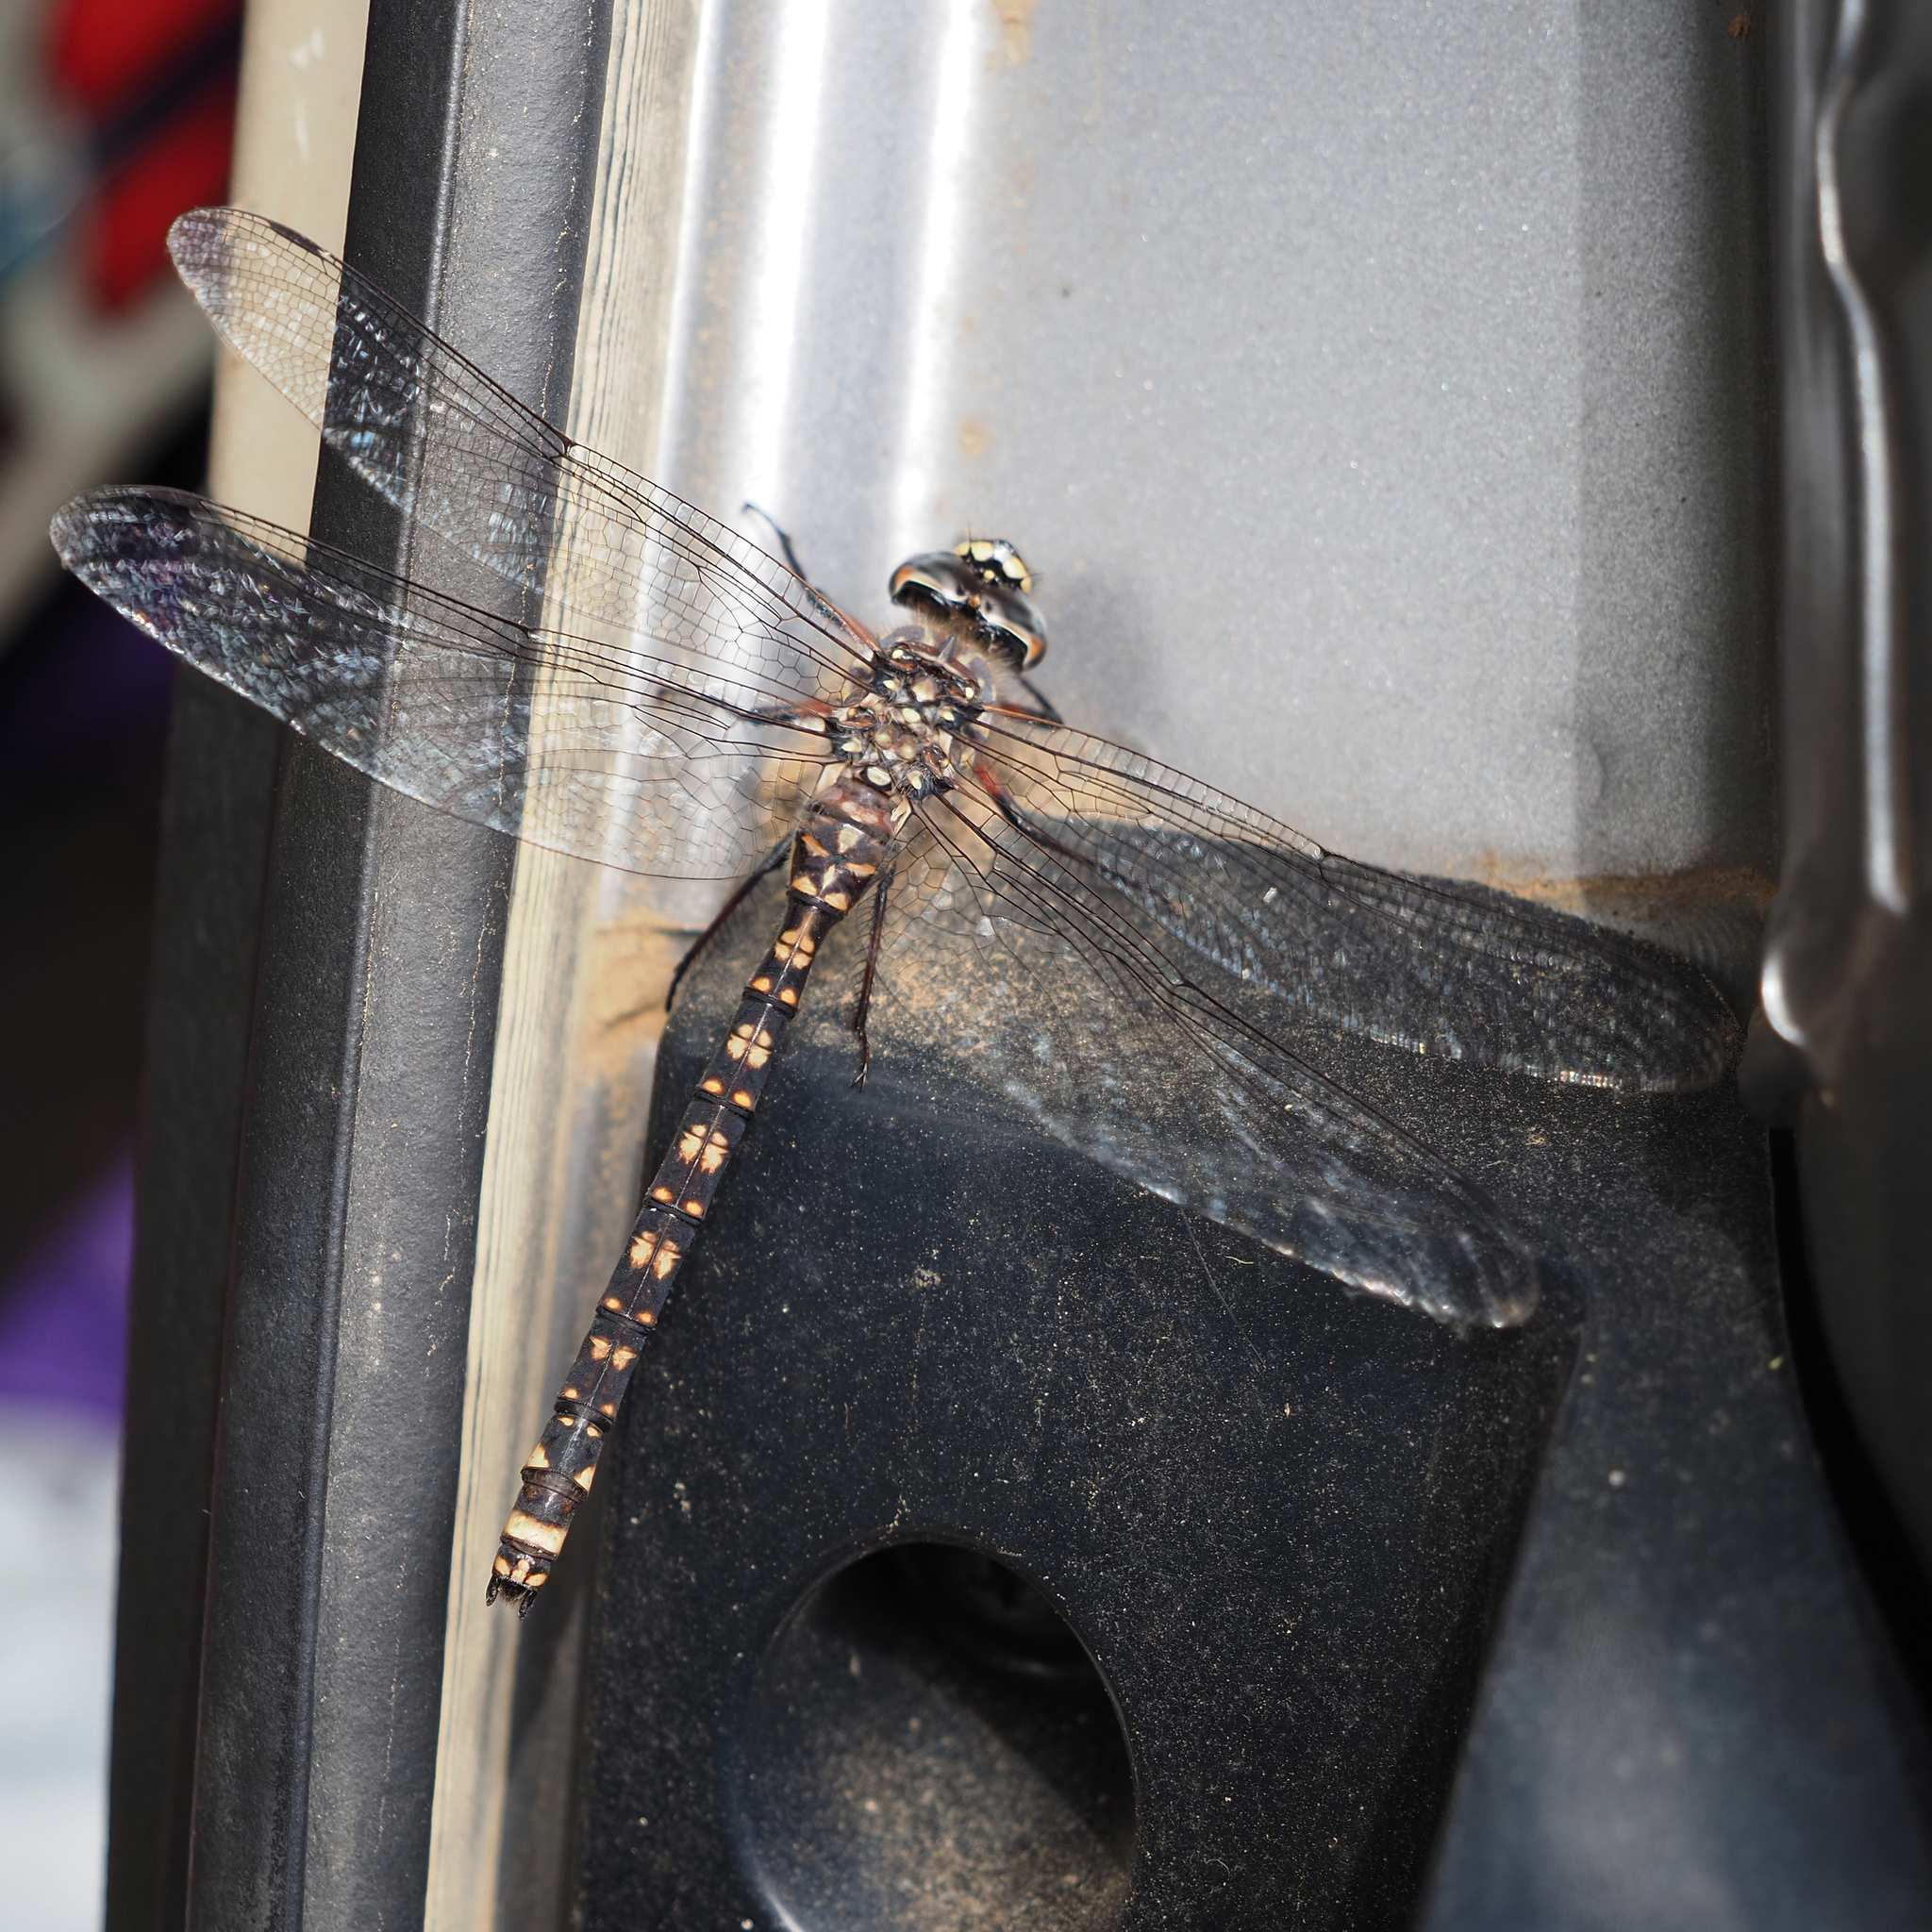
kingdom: Animalia
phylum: Arthropoda
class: Insecta
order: Odonata
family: Aeshnidae
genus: Austroaeschna
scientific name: Austroaeschna tasmanica
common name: Tasmanian darner
